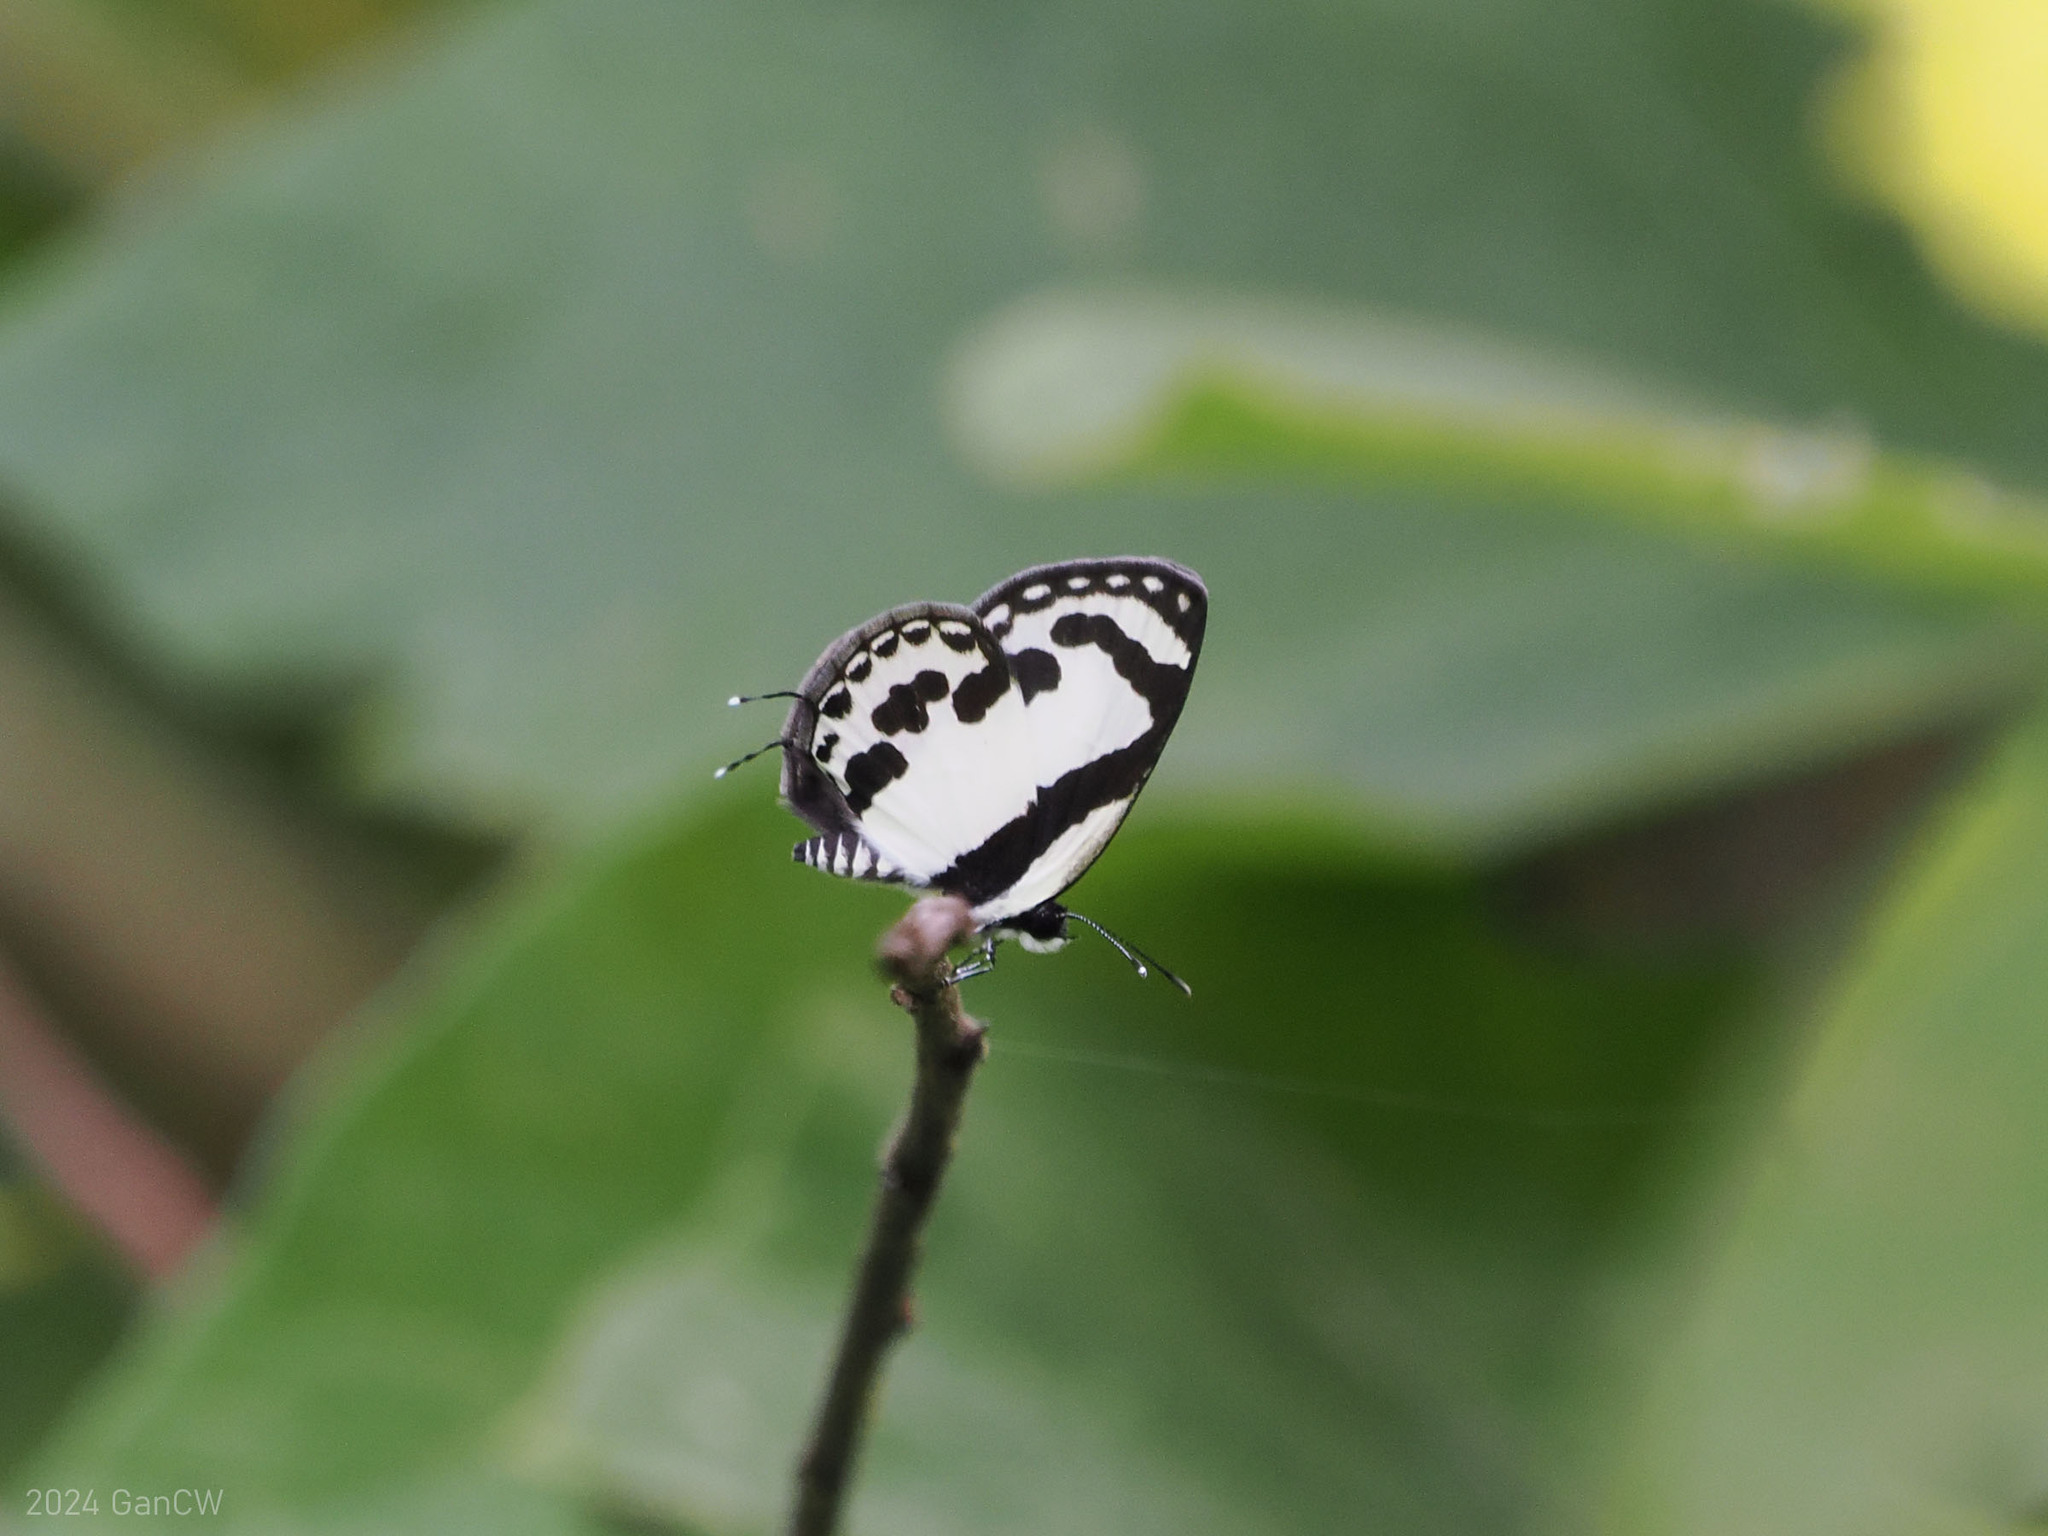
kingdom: Animalia
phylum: Arthropoda
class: Insecta
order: Lepidoptera
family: Lycaenidae
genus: Caleta
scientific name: Caleta roxus
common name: Straight pierrot
